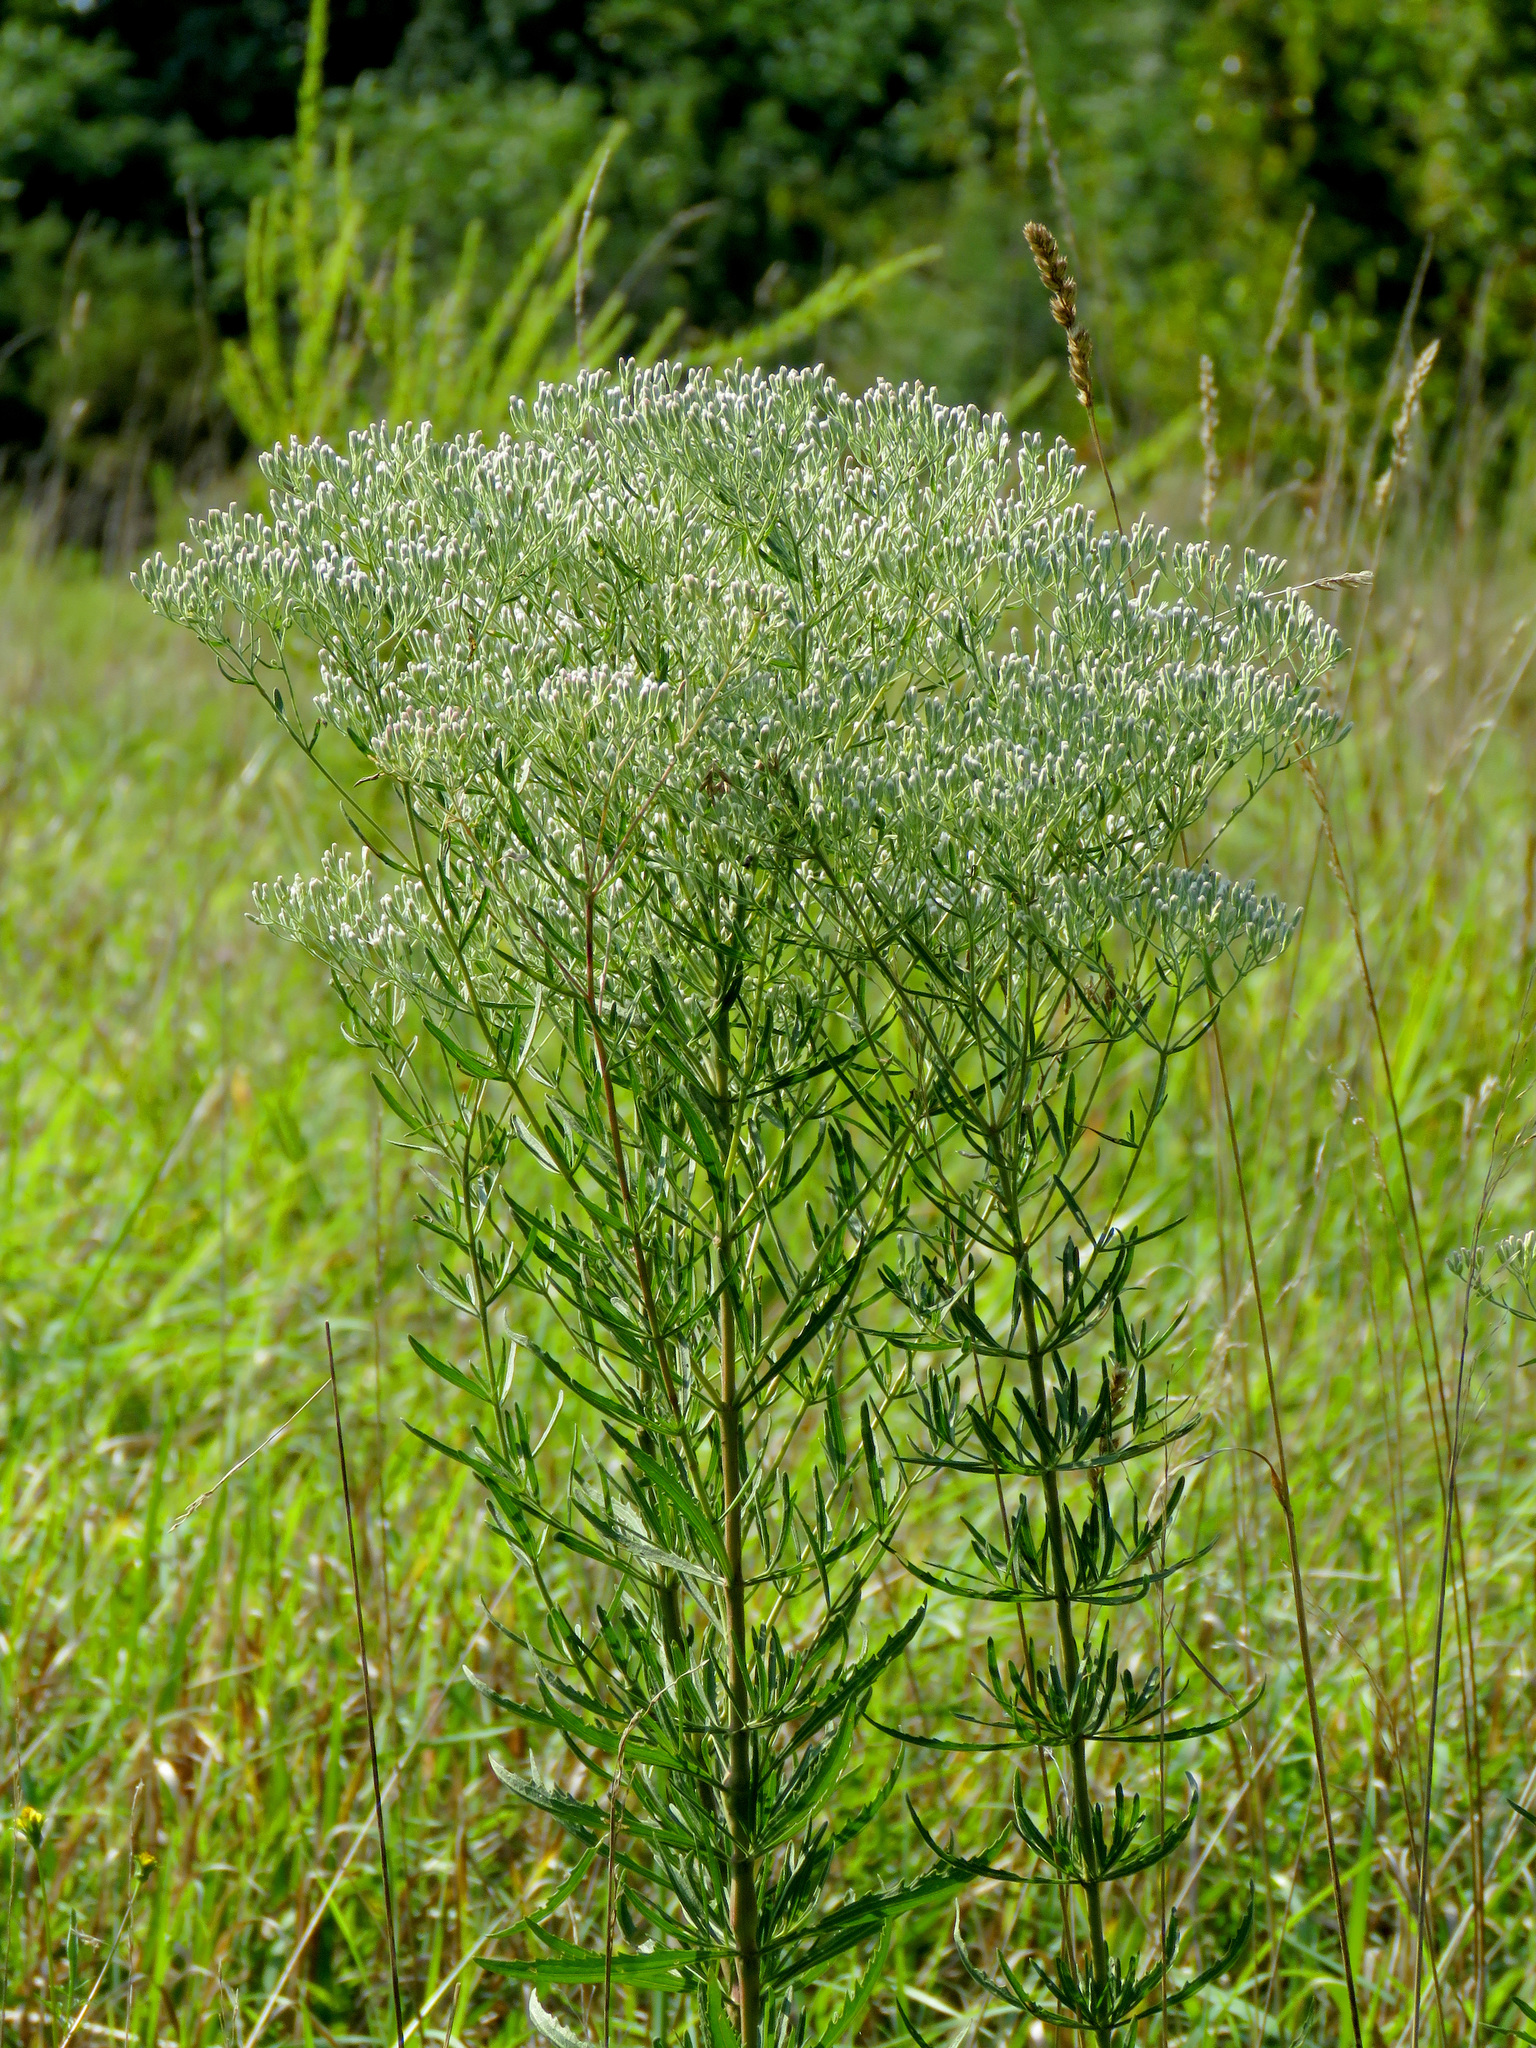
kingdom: Plantae
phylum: Tracheophyta
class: Magnoliopsida
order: Asterales
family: Asteraceae
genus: Eupatorium
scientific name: Eupatorium torreyanum
